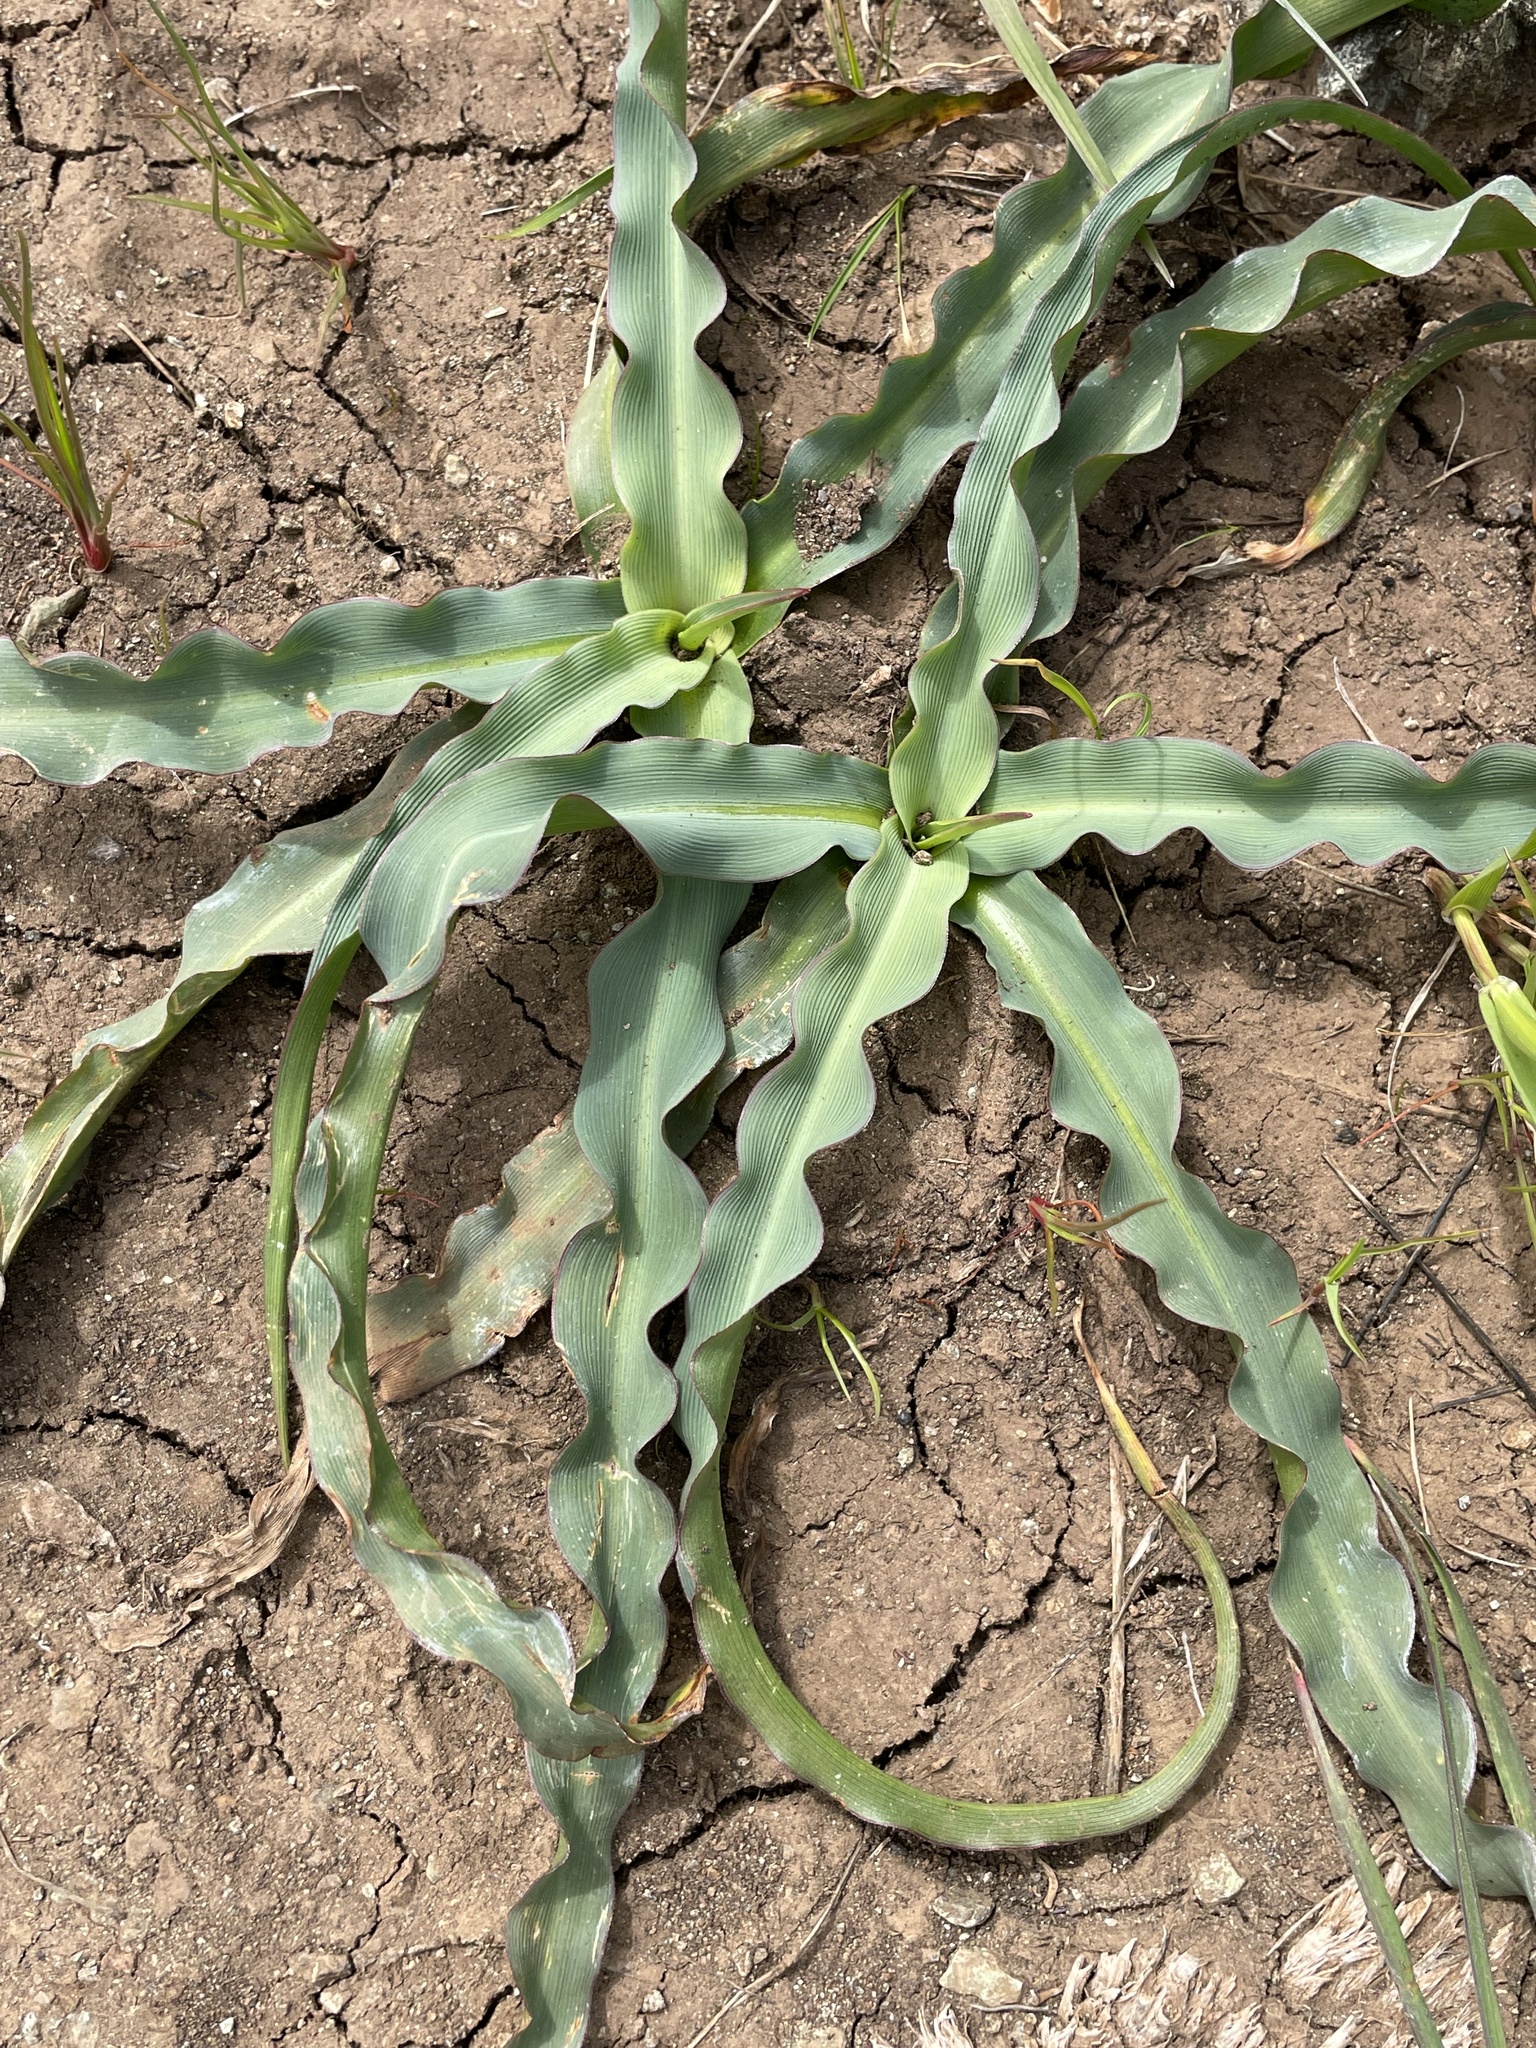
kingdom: Plantae
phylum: Tracheophyta
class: Liliopsida
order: Asparagales
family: Asparagaceae
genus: Chlorogalum
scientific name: Chlorogalum pomeridianum
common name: Amole
